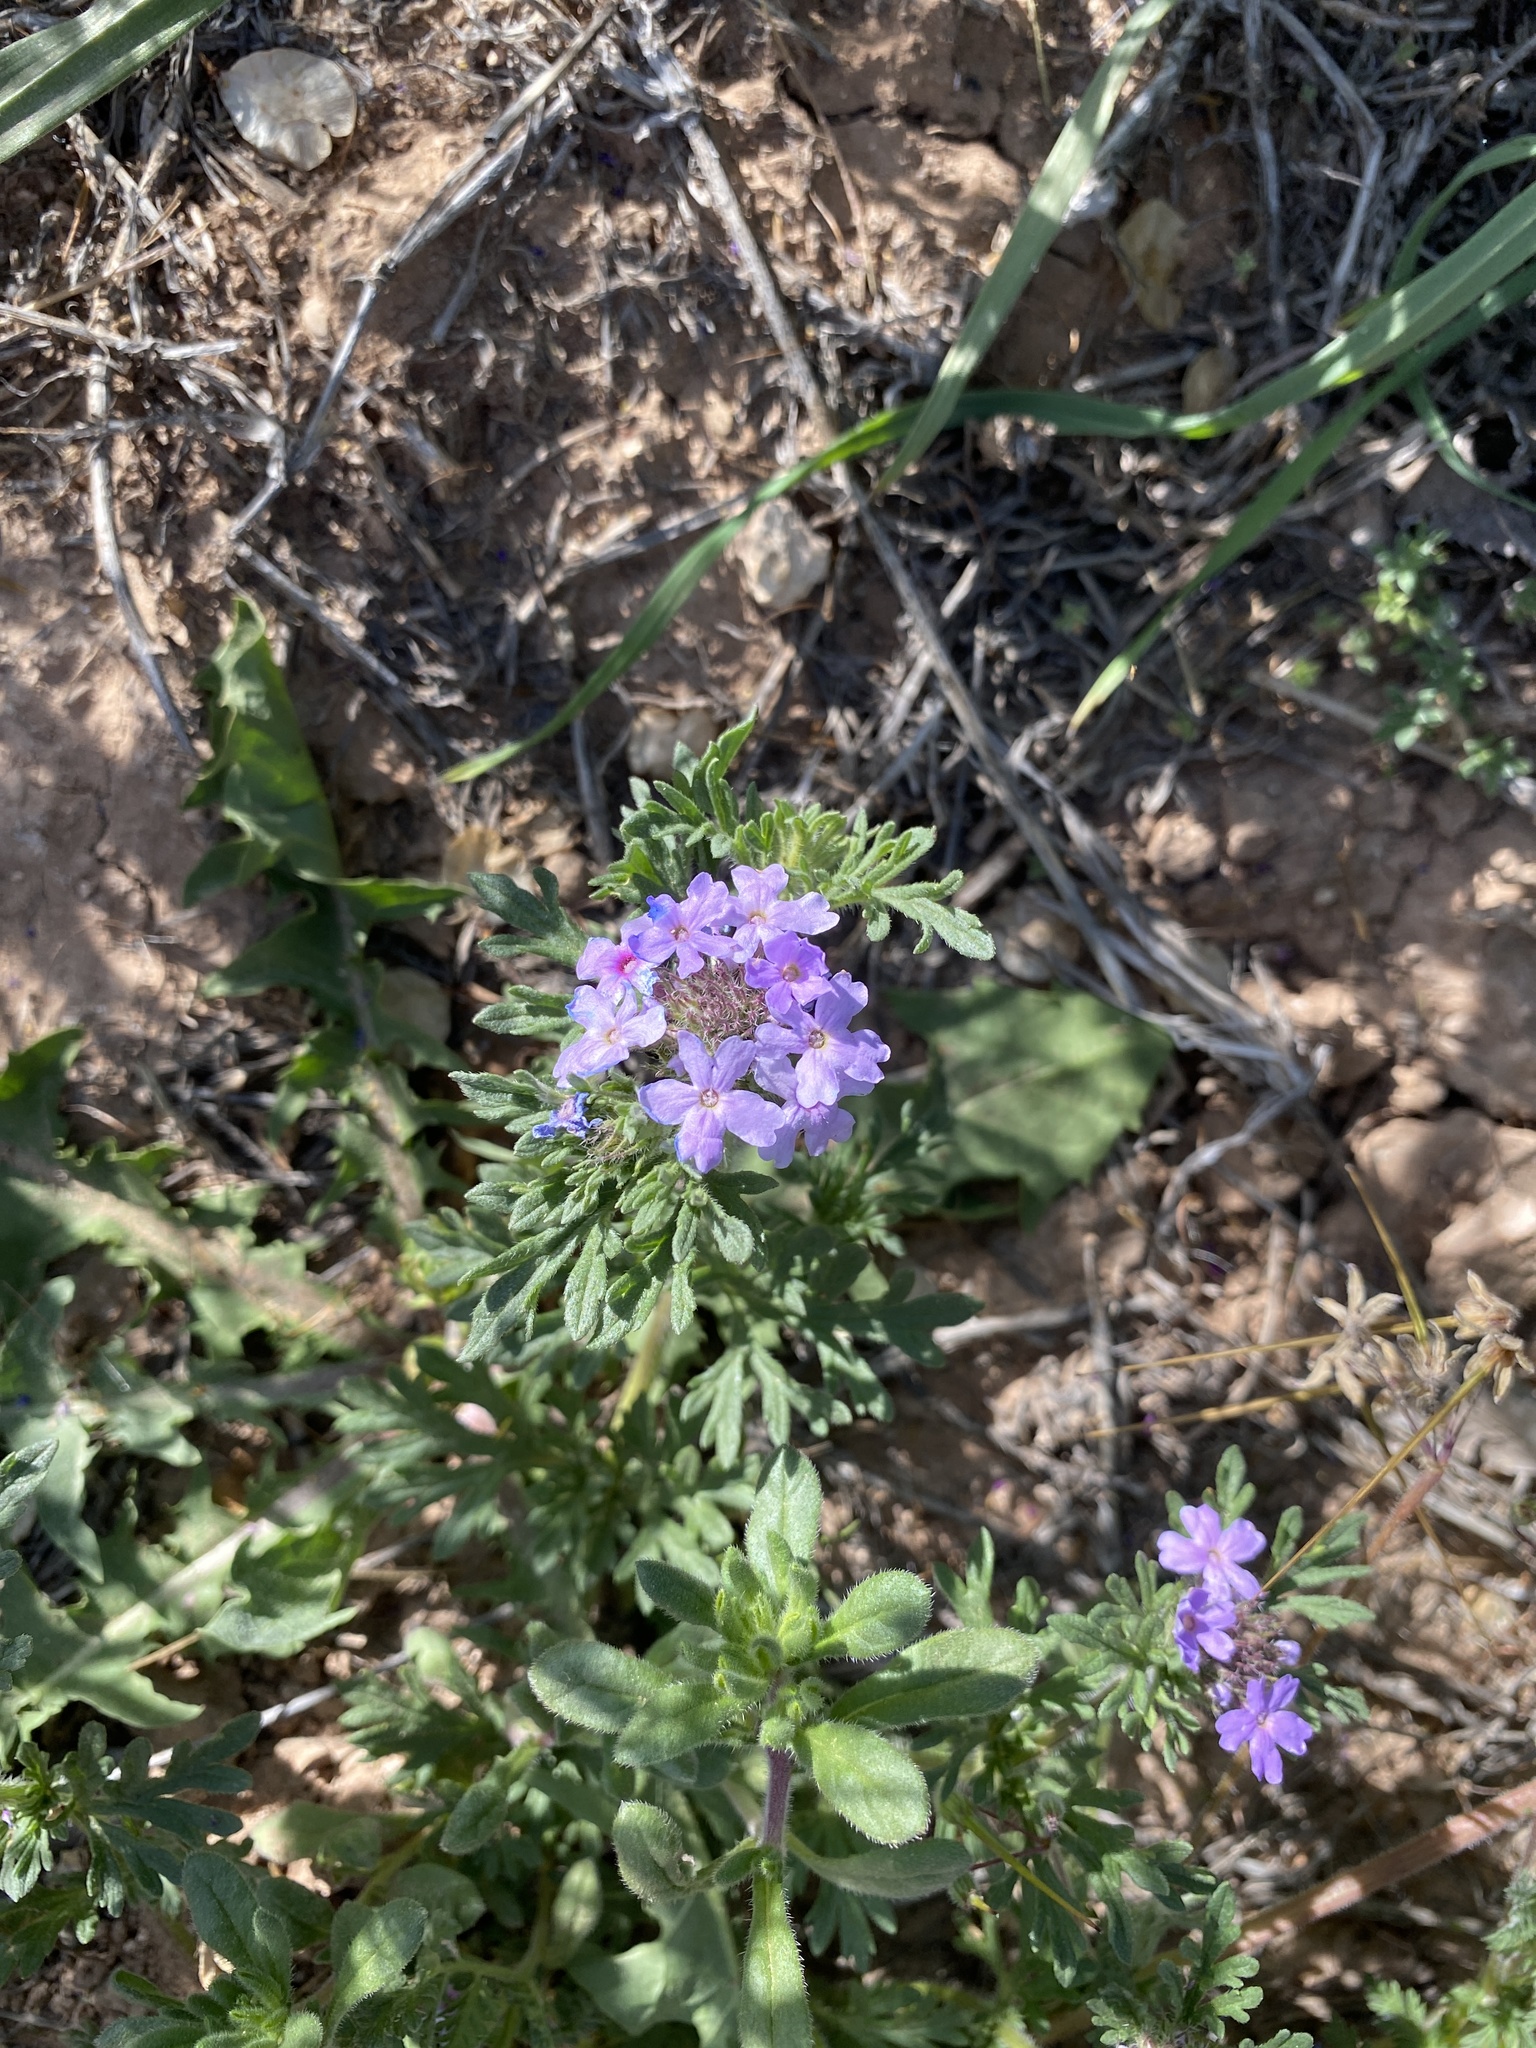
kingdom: Plantae
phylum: Tracheophyta
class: Magnoliopsida
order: Lamiales
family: Verbenaceae
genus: Verbena
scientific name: Verbena bipinnatifida
